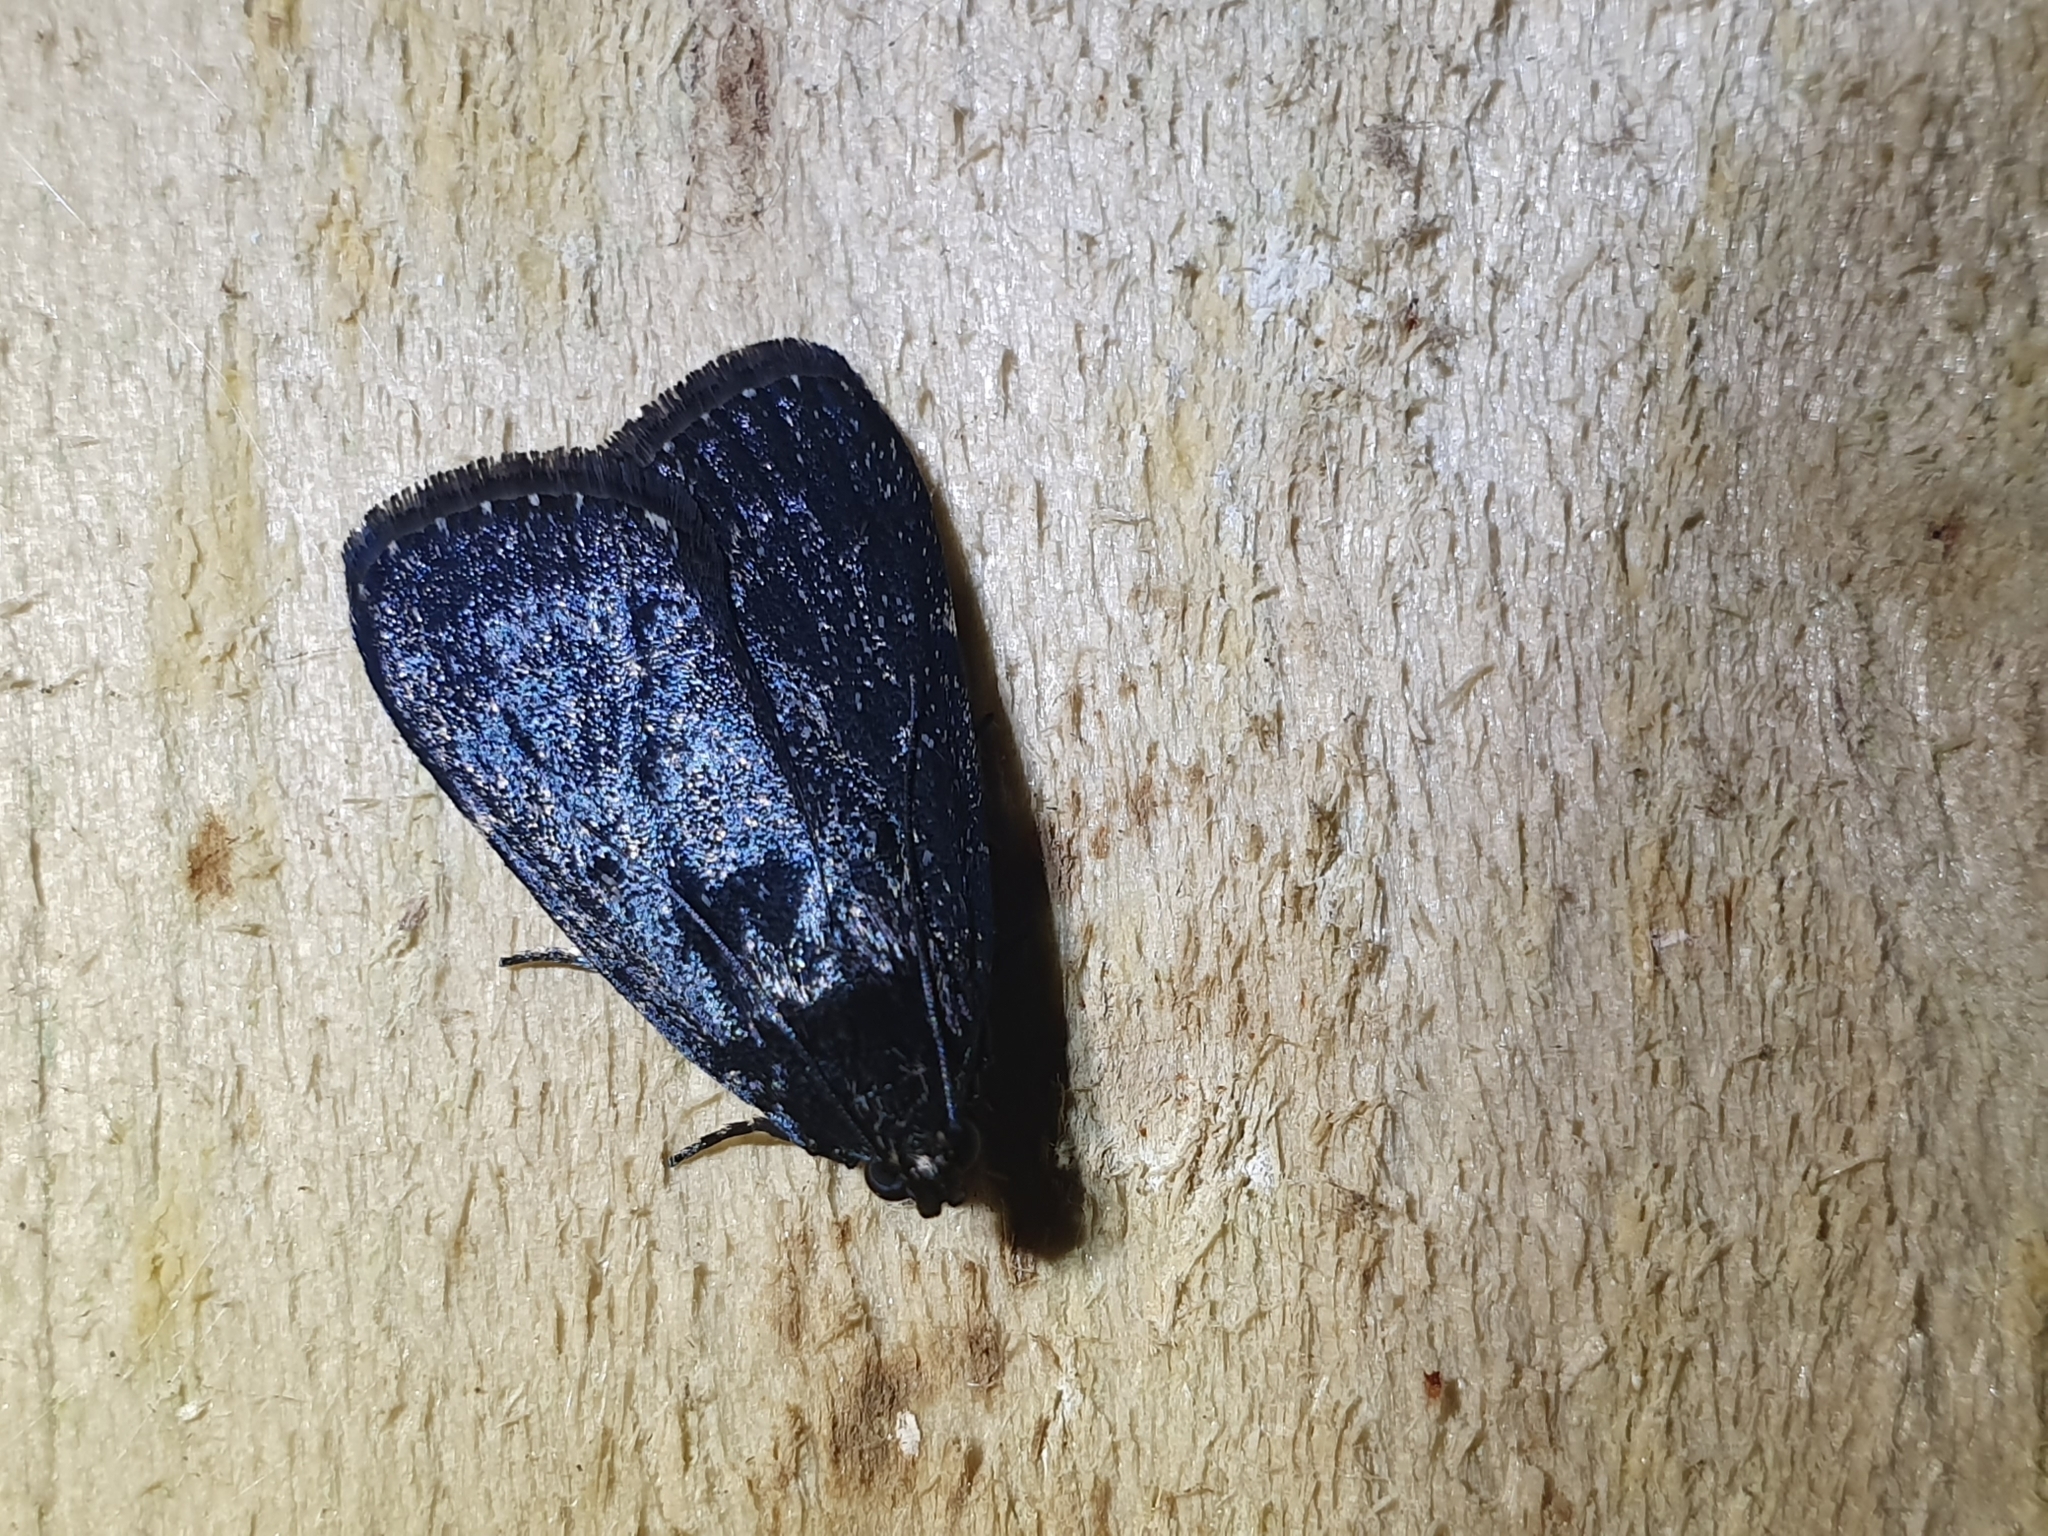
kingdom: Animalia
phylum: Arthropoda
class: Insecta
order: Lepidoptera
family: Pyralidae
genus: Stericta
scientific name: Stericta carbonalis
